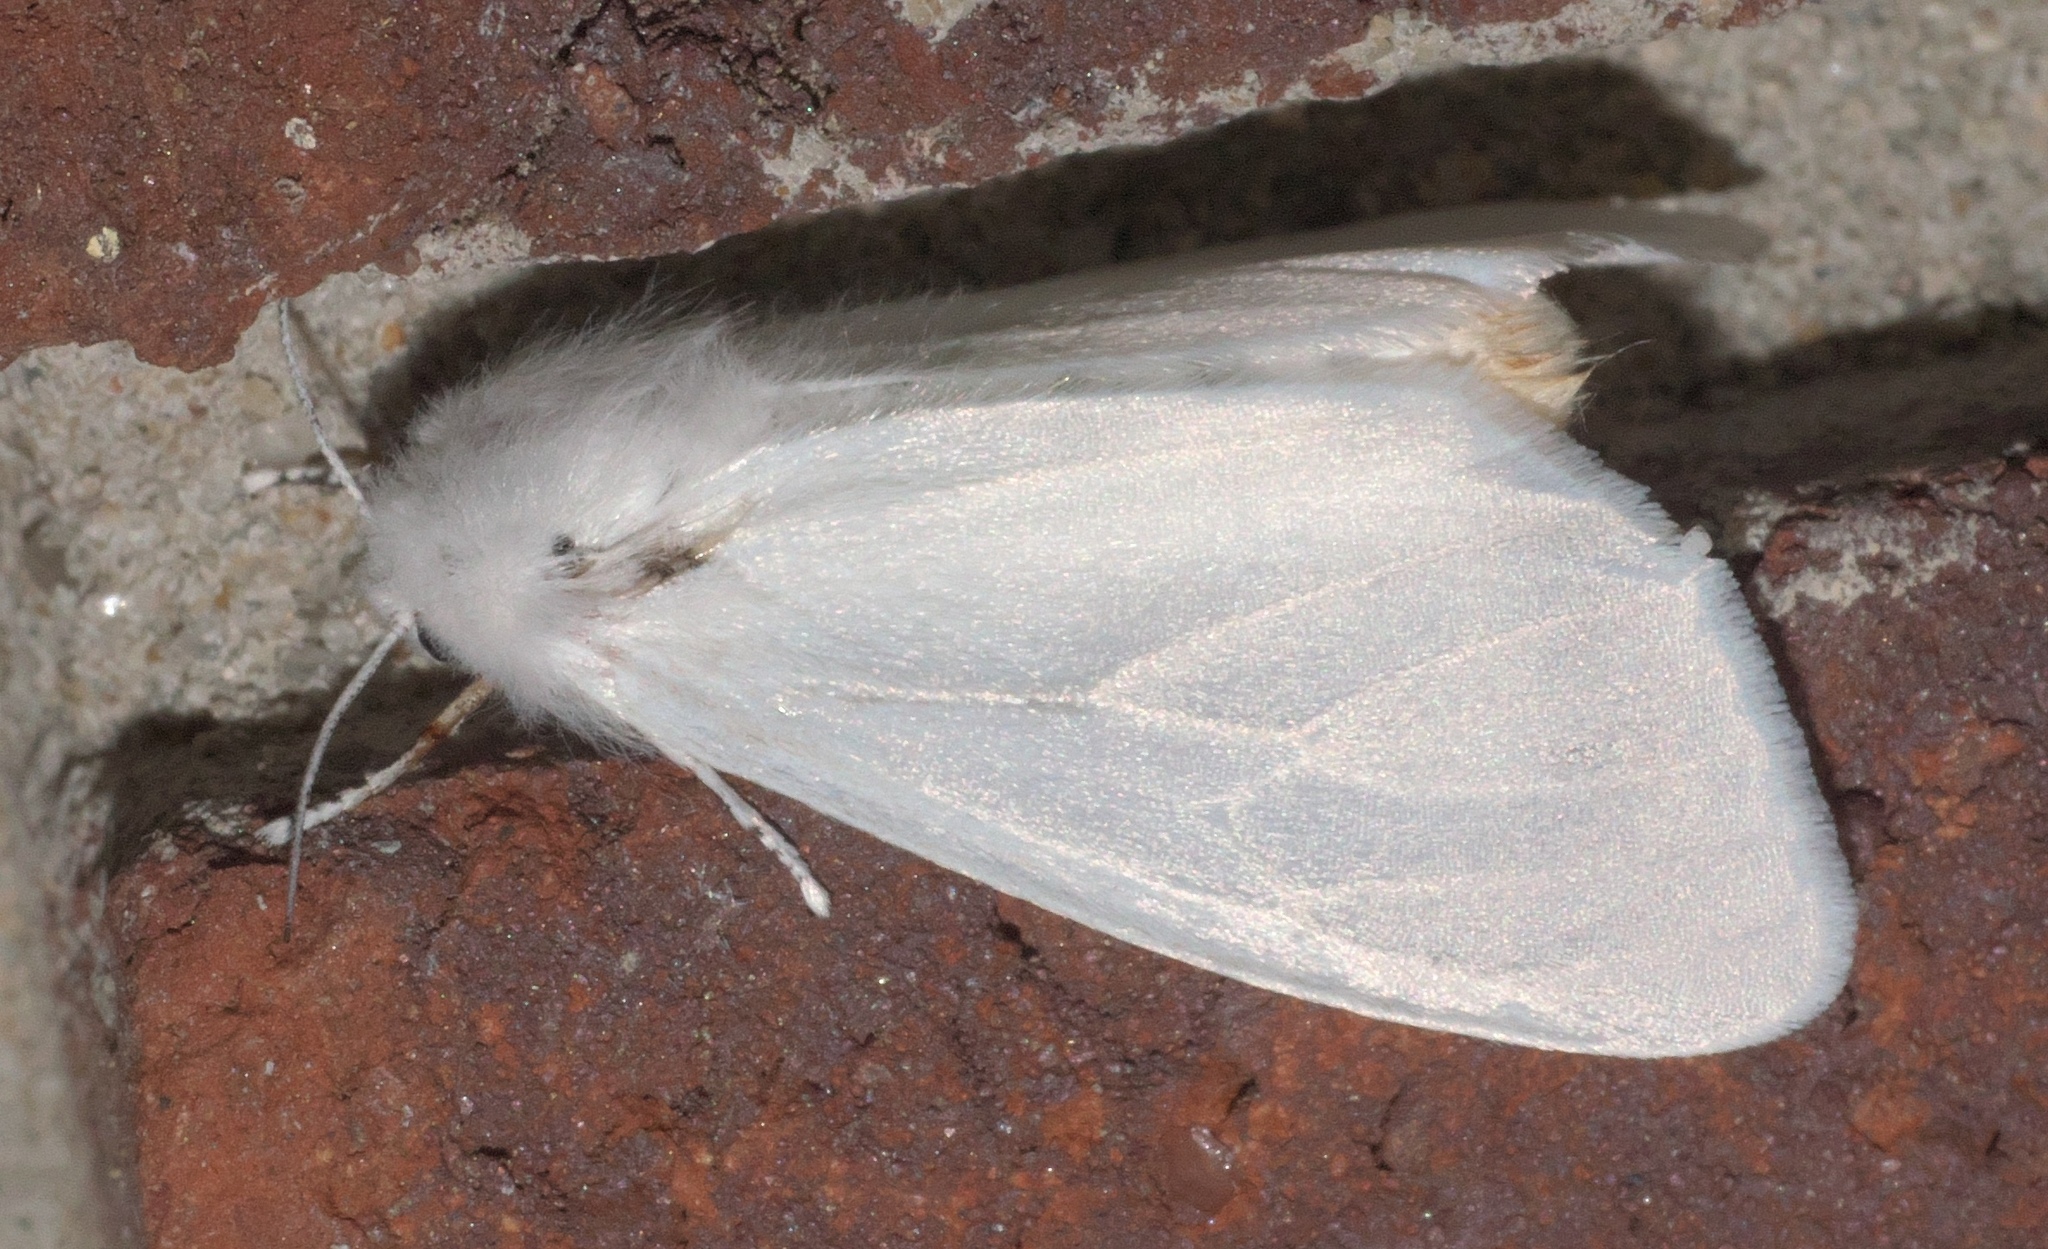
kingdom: Animalia
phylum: Arthropoda
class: Insecta
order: Lepidoptera
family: Erebidae
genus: Hyphantria
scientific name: Hyphantria cunea
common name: American white moth
